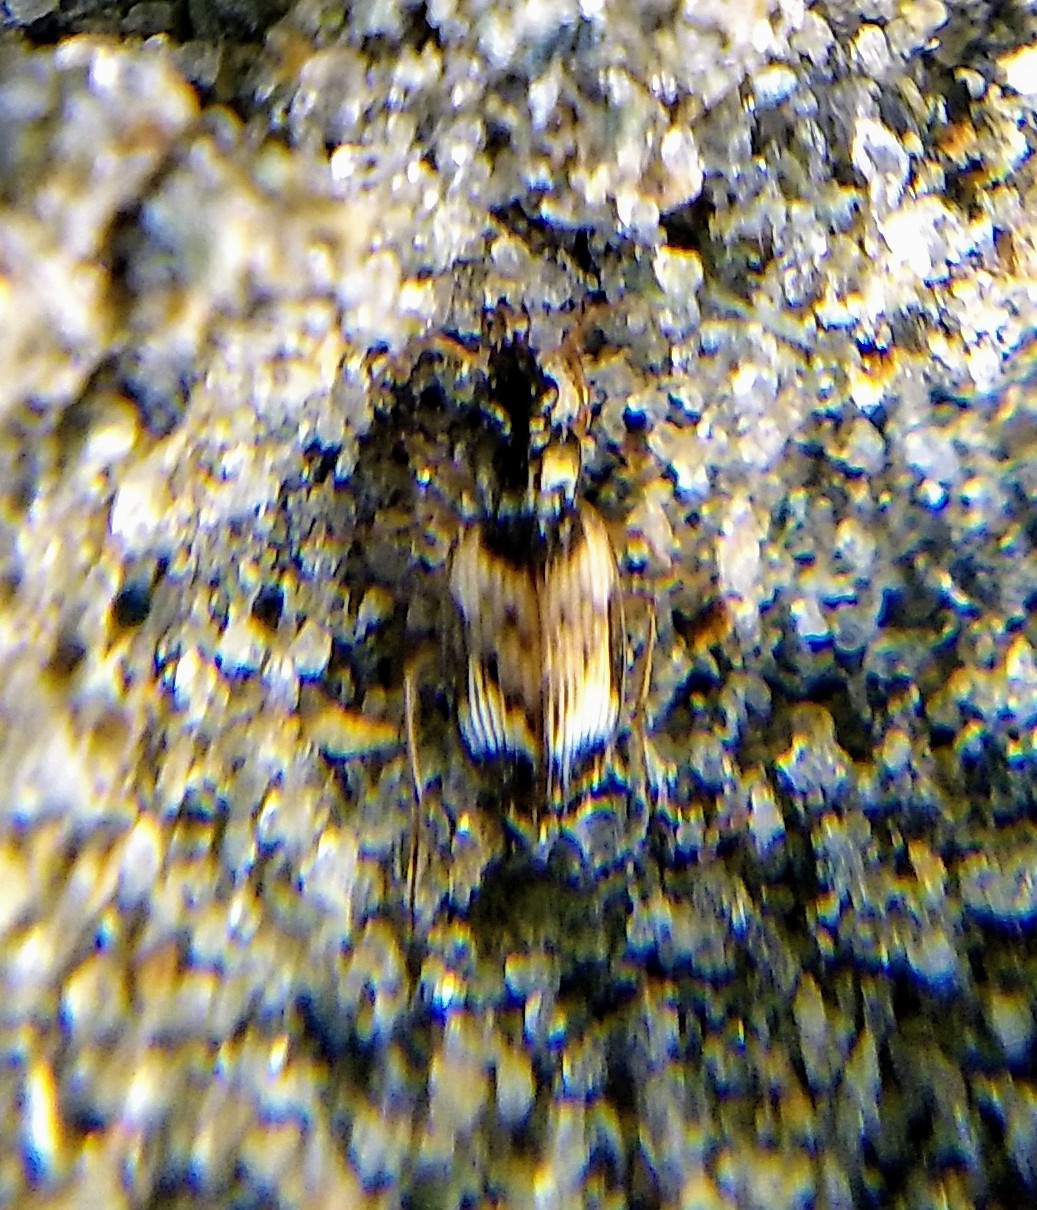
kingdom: Animalia
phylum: Arthropoda
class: Insecta
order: Coleoptera
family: Carabidae
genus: Tetragonoderus
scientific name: Tetragonoderus fasciatus
